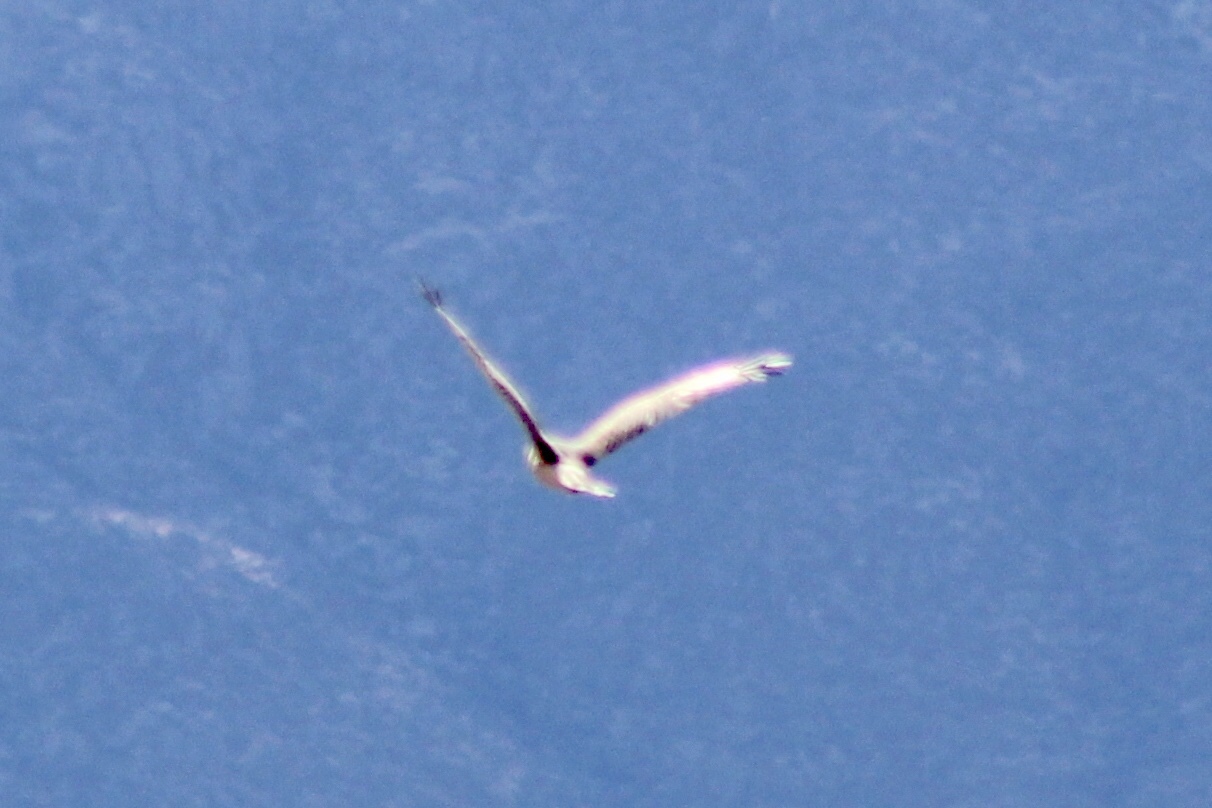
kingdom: Animalia
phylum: Chordata
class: Aves
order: Accipitriformes
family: Accipitridae
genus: Circus
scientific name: Circus cyaneus
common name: Hen harrier
